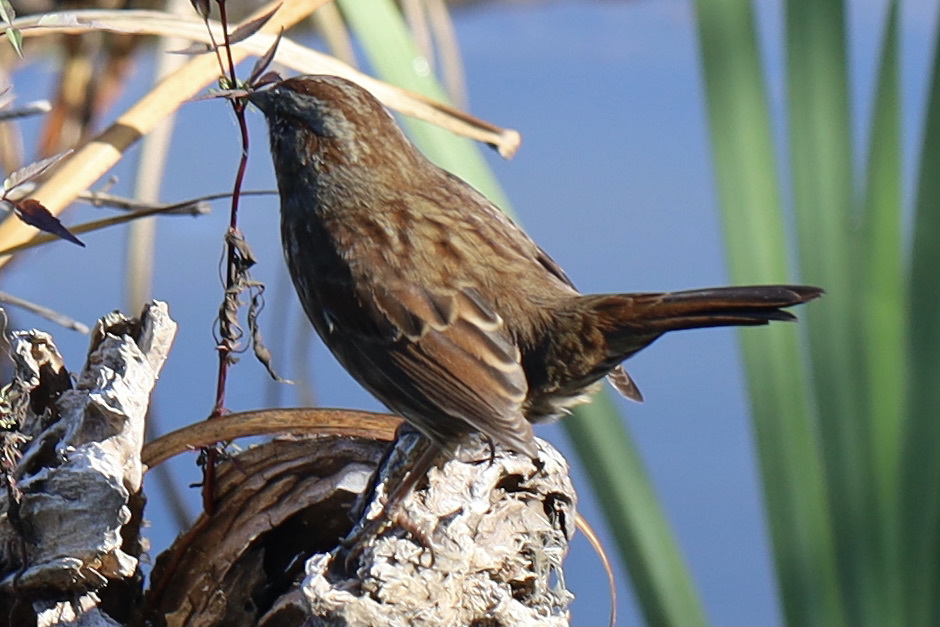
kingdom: Animalia
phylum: Chordata
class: Aves
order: Passeriformes
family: Passerellidae
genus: Melospiza
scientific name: Melospiza melodia
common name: Song sparrow
